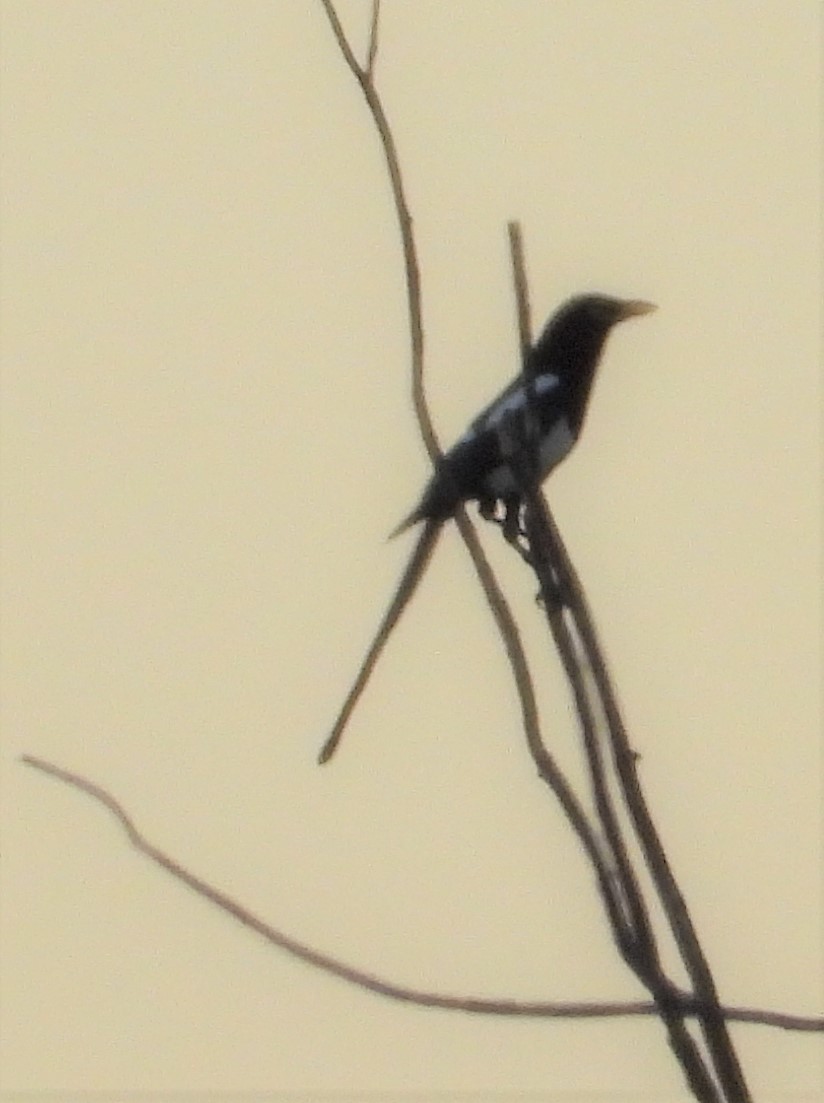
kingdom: Animalia
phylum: Chordata
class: Aves
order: Passeriformes
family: Corvidae
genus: Pica
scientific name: Pica nuttalli
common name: Yellow-billed magpie
